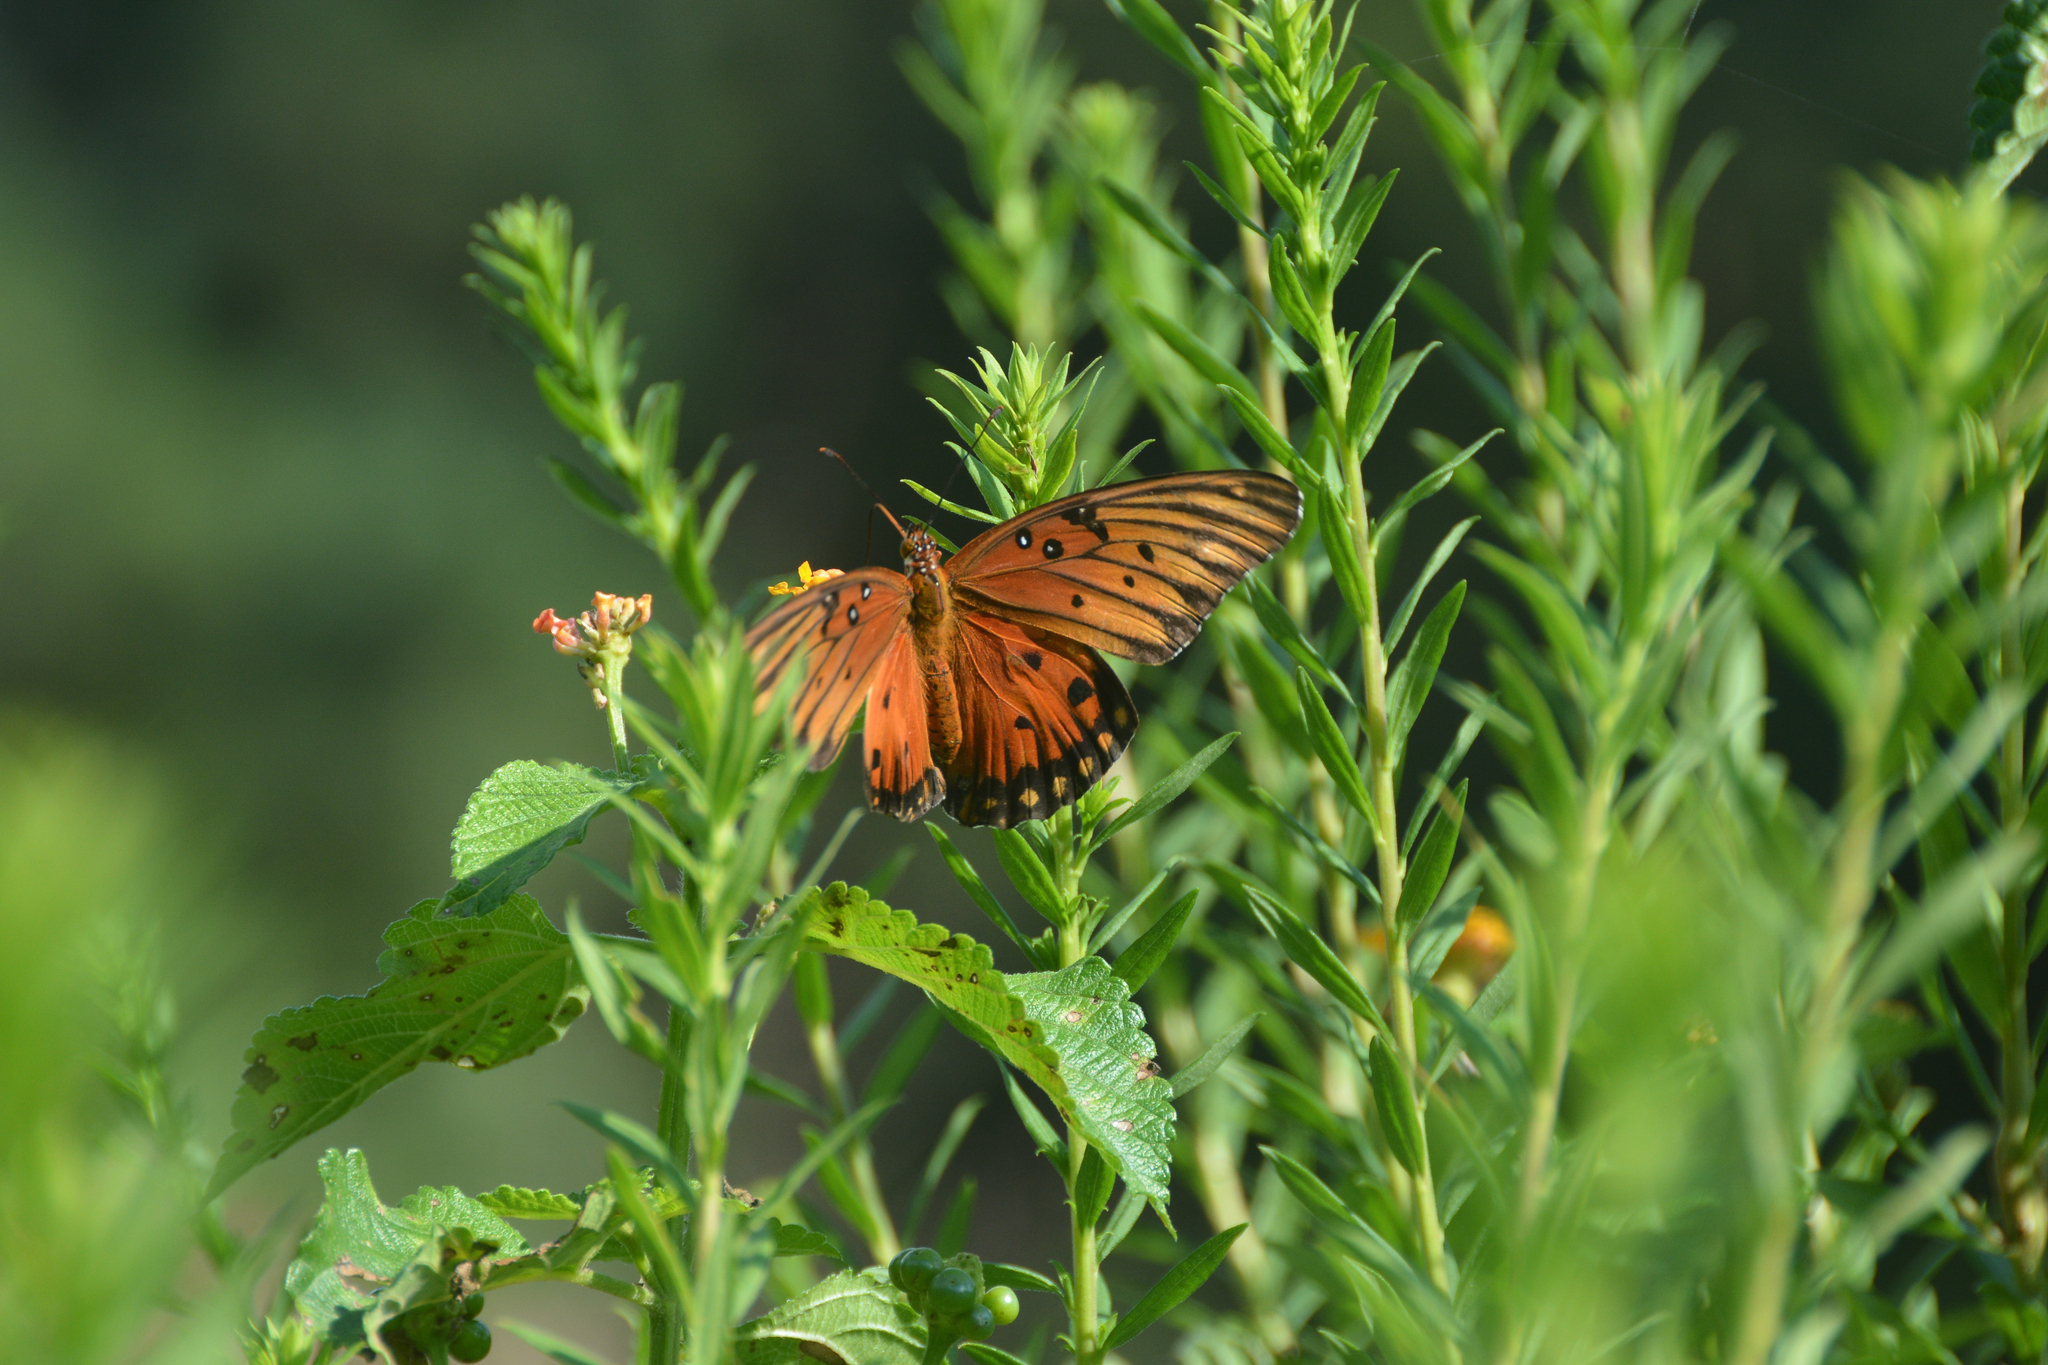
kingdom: Animalia
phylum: Arthropoda
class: Insecta
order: Lepidoptera
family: Nymphalidae
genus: Dione
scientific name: Dione vanillae
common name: Gulf fritillary
